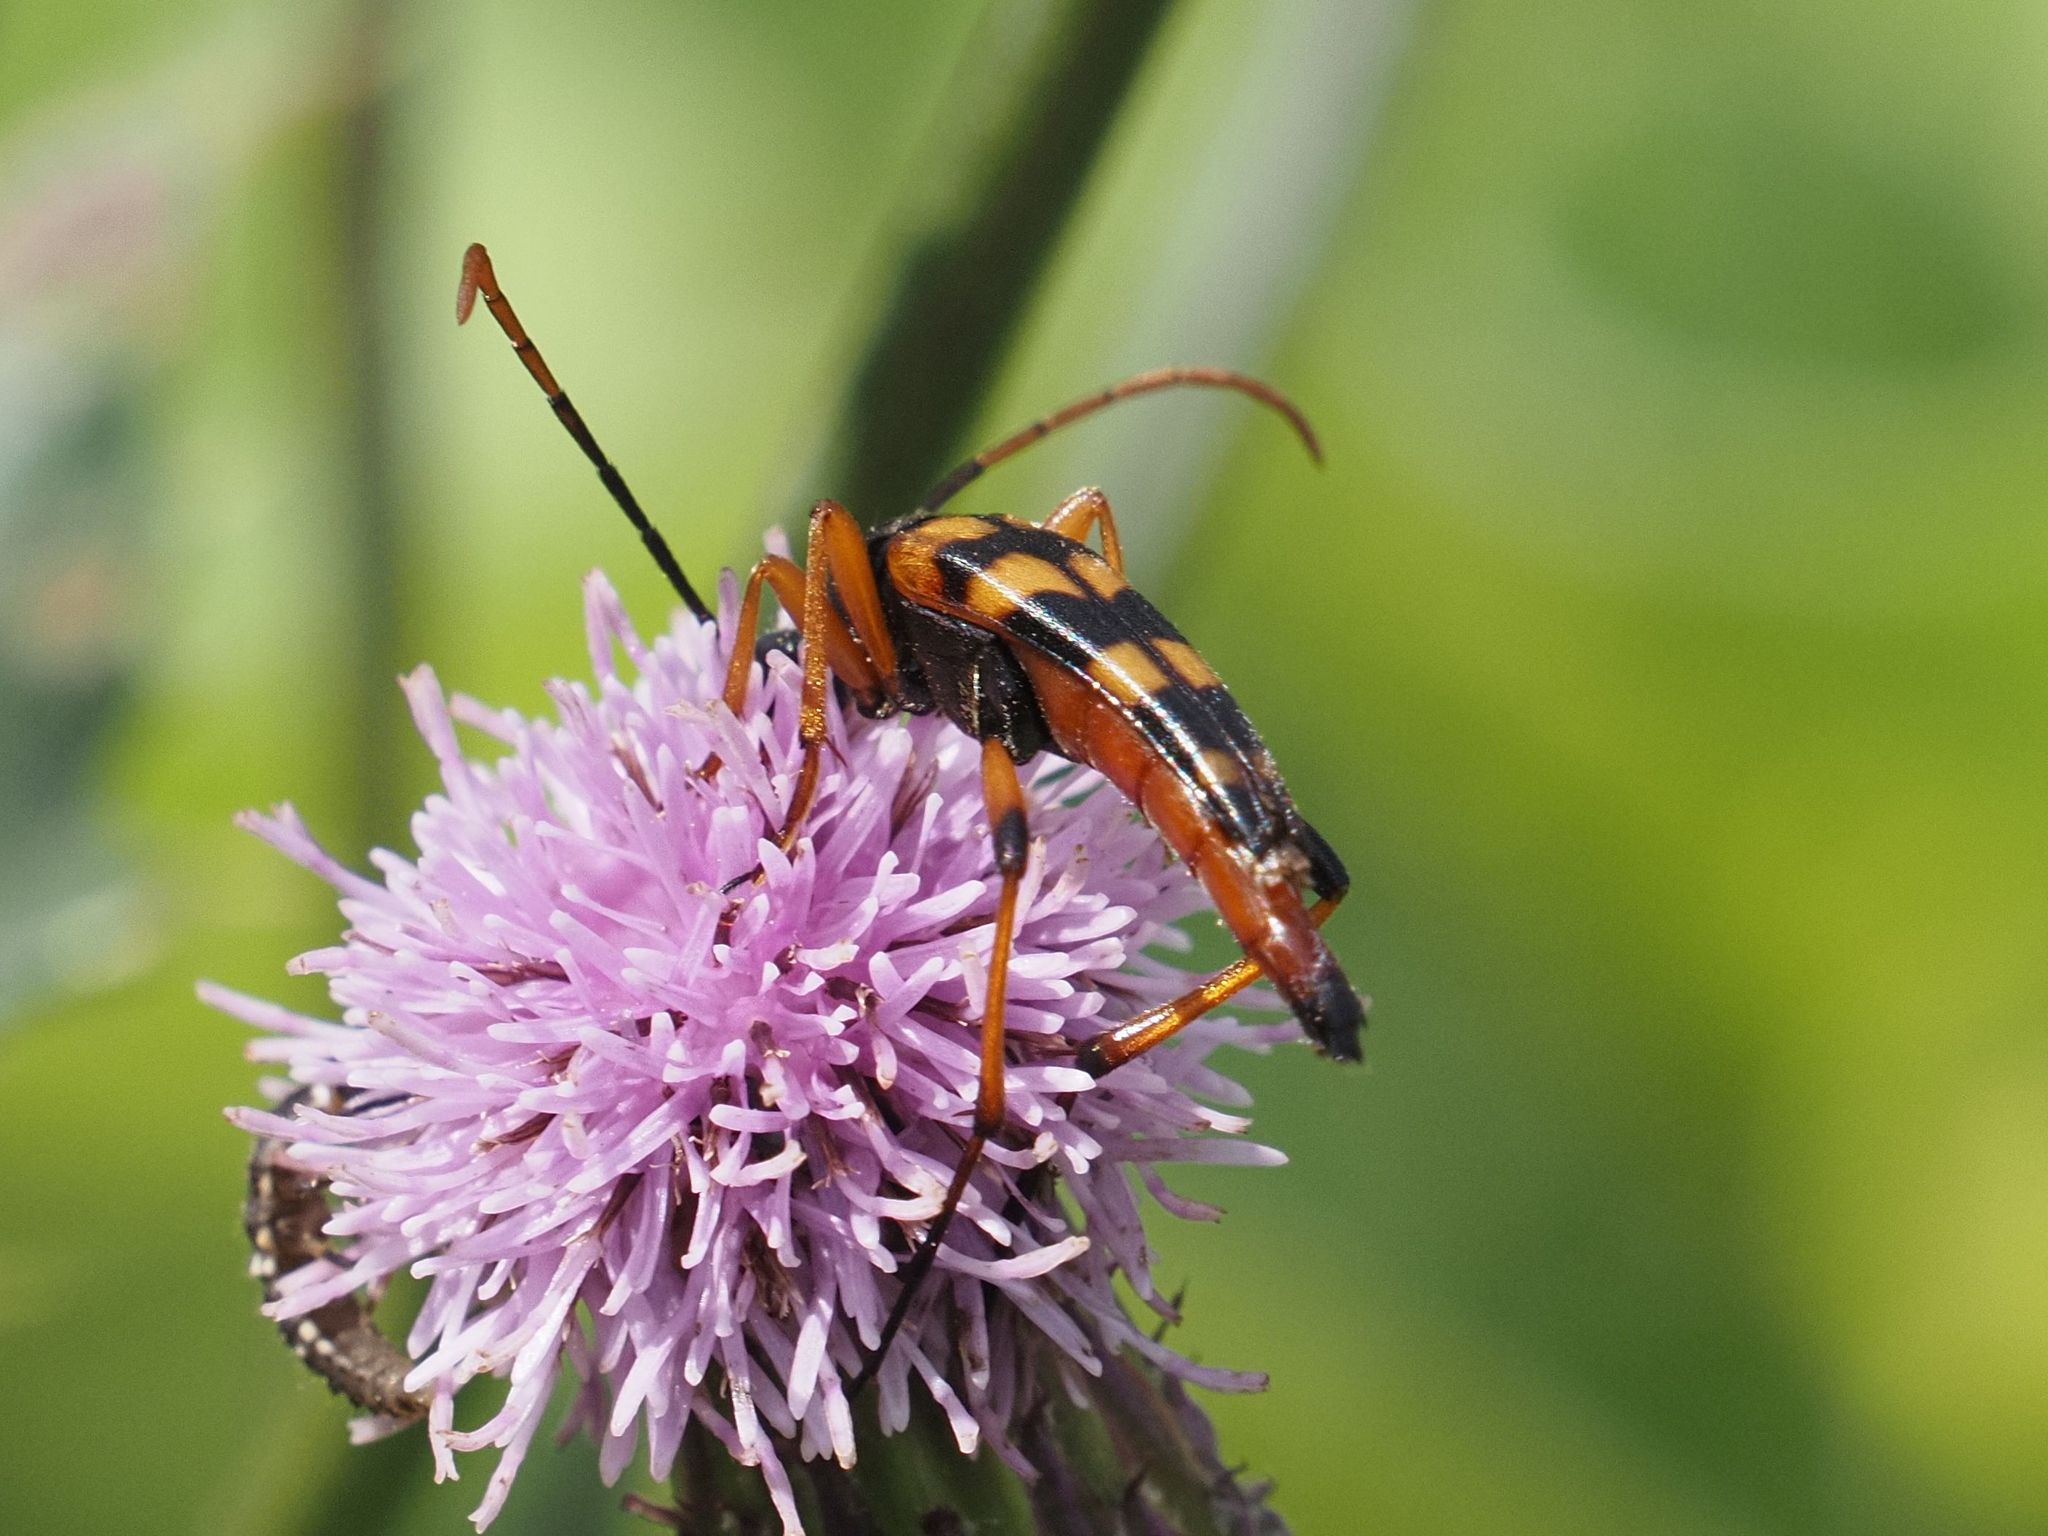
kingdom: Animalia
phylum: Arthropoda
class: Insecta
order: Coleoptera
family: Cerambycidae
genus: Strangalia
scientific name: Strangalia attenuata
